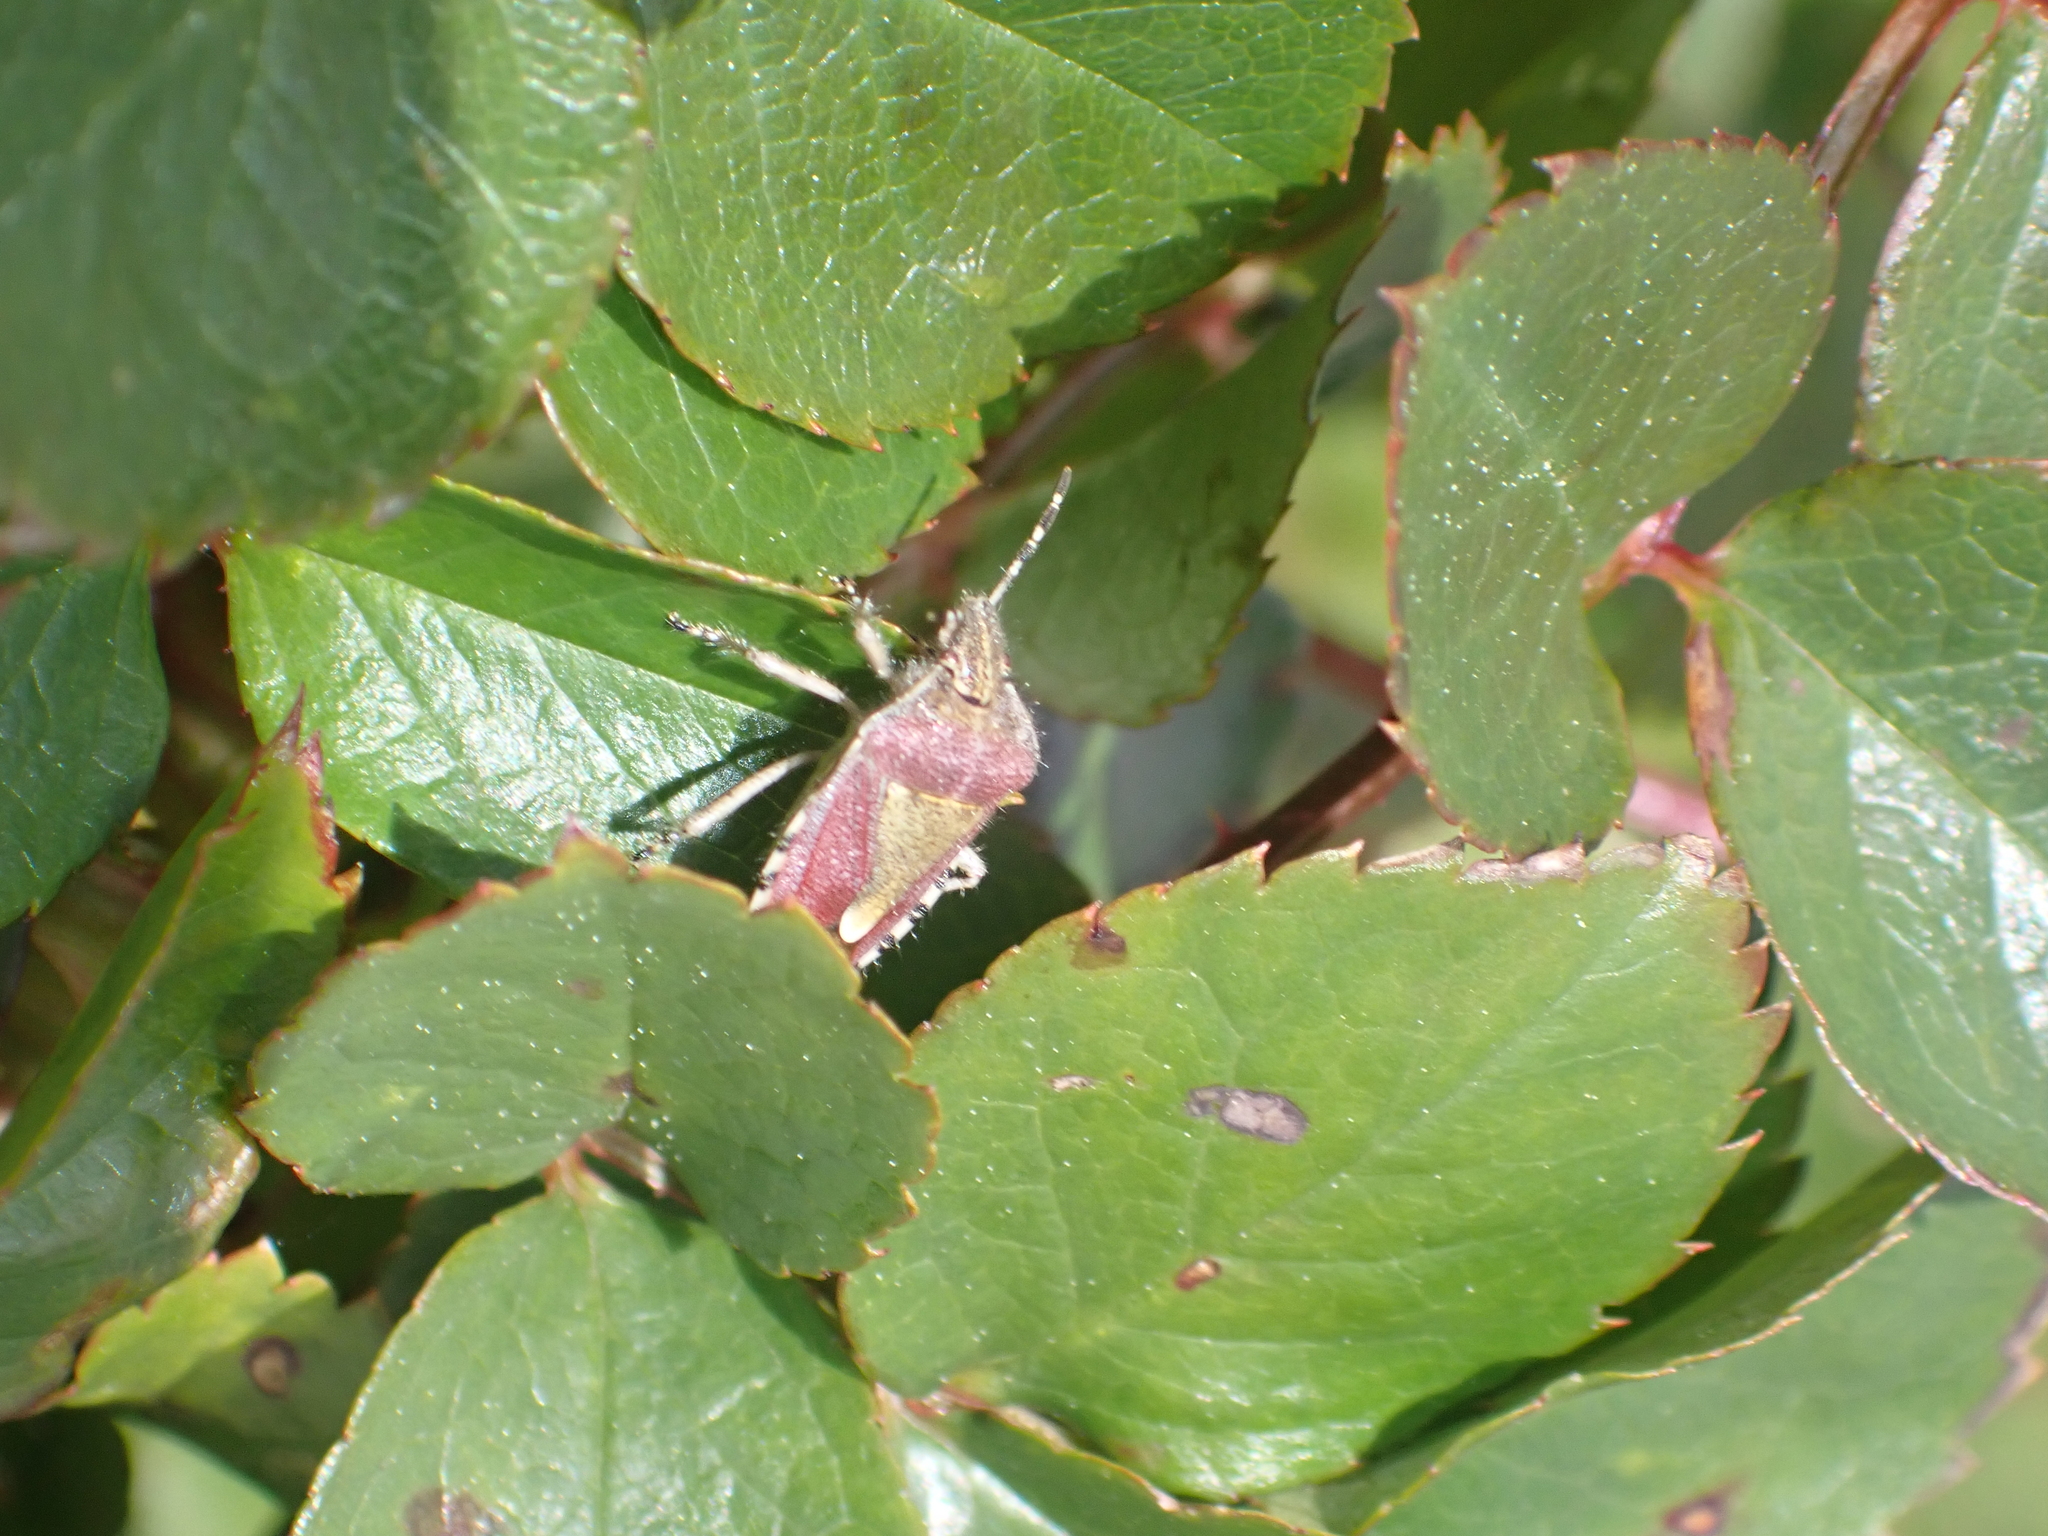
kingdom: Animalia
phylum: Arthropoda
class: Insecta
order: Hemiptera
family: Pentatomidae
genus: Dolycoris
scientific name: Dolycoris baccarum
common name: Sloe bug
